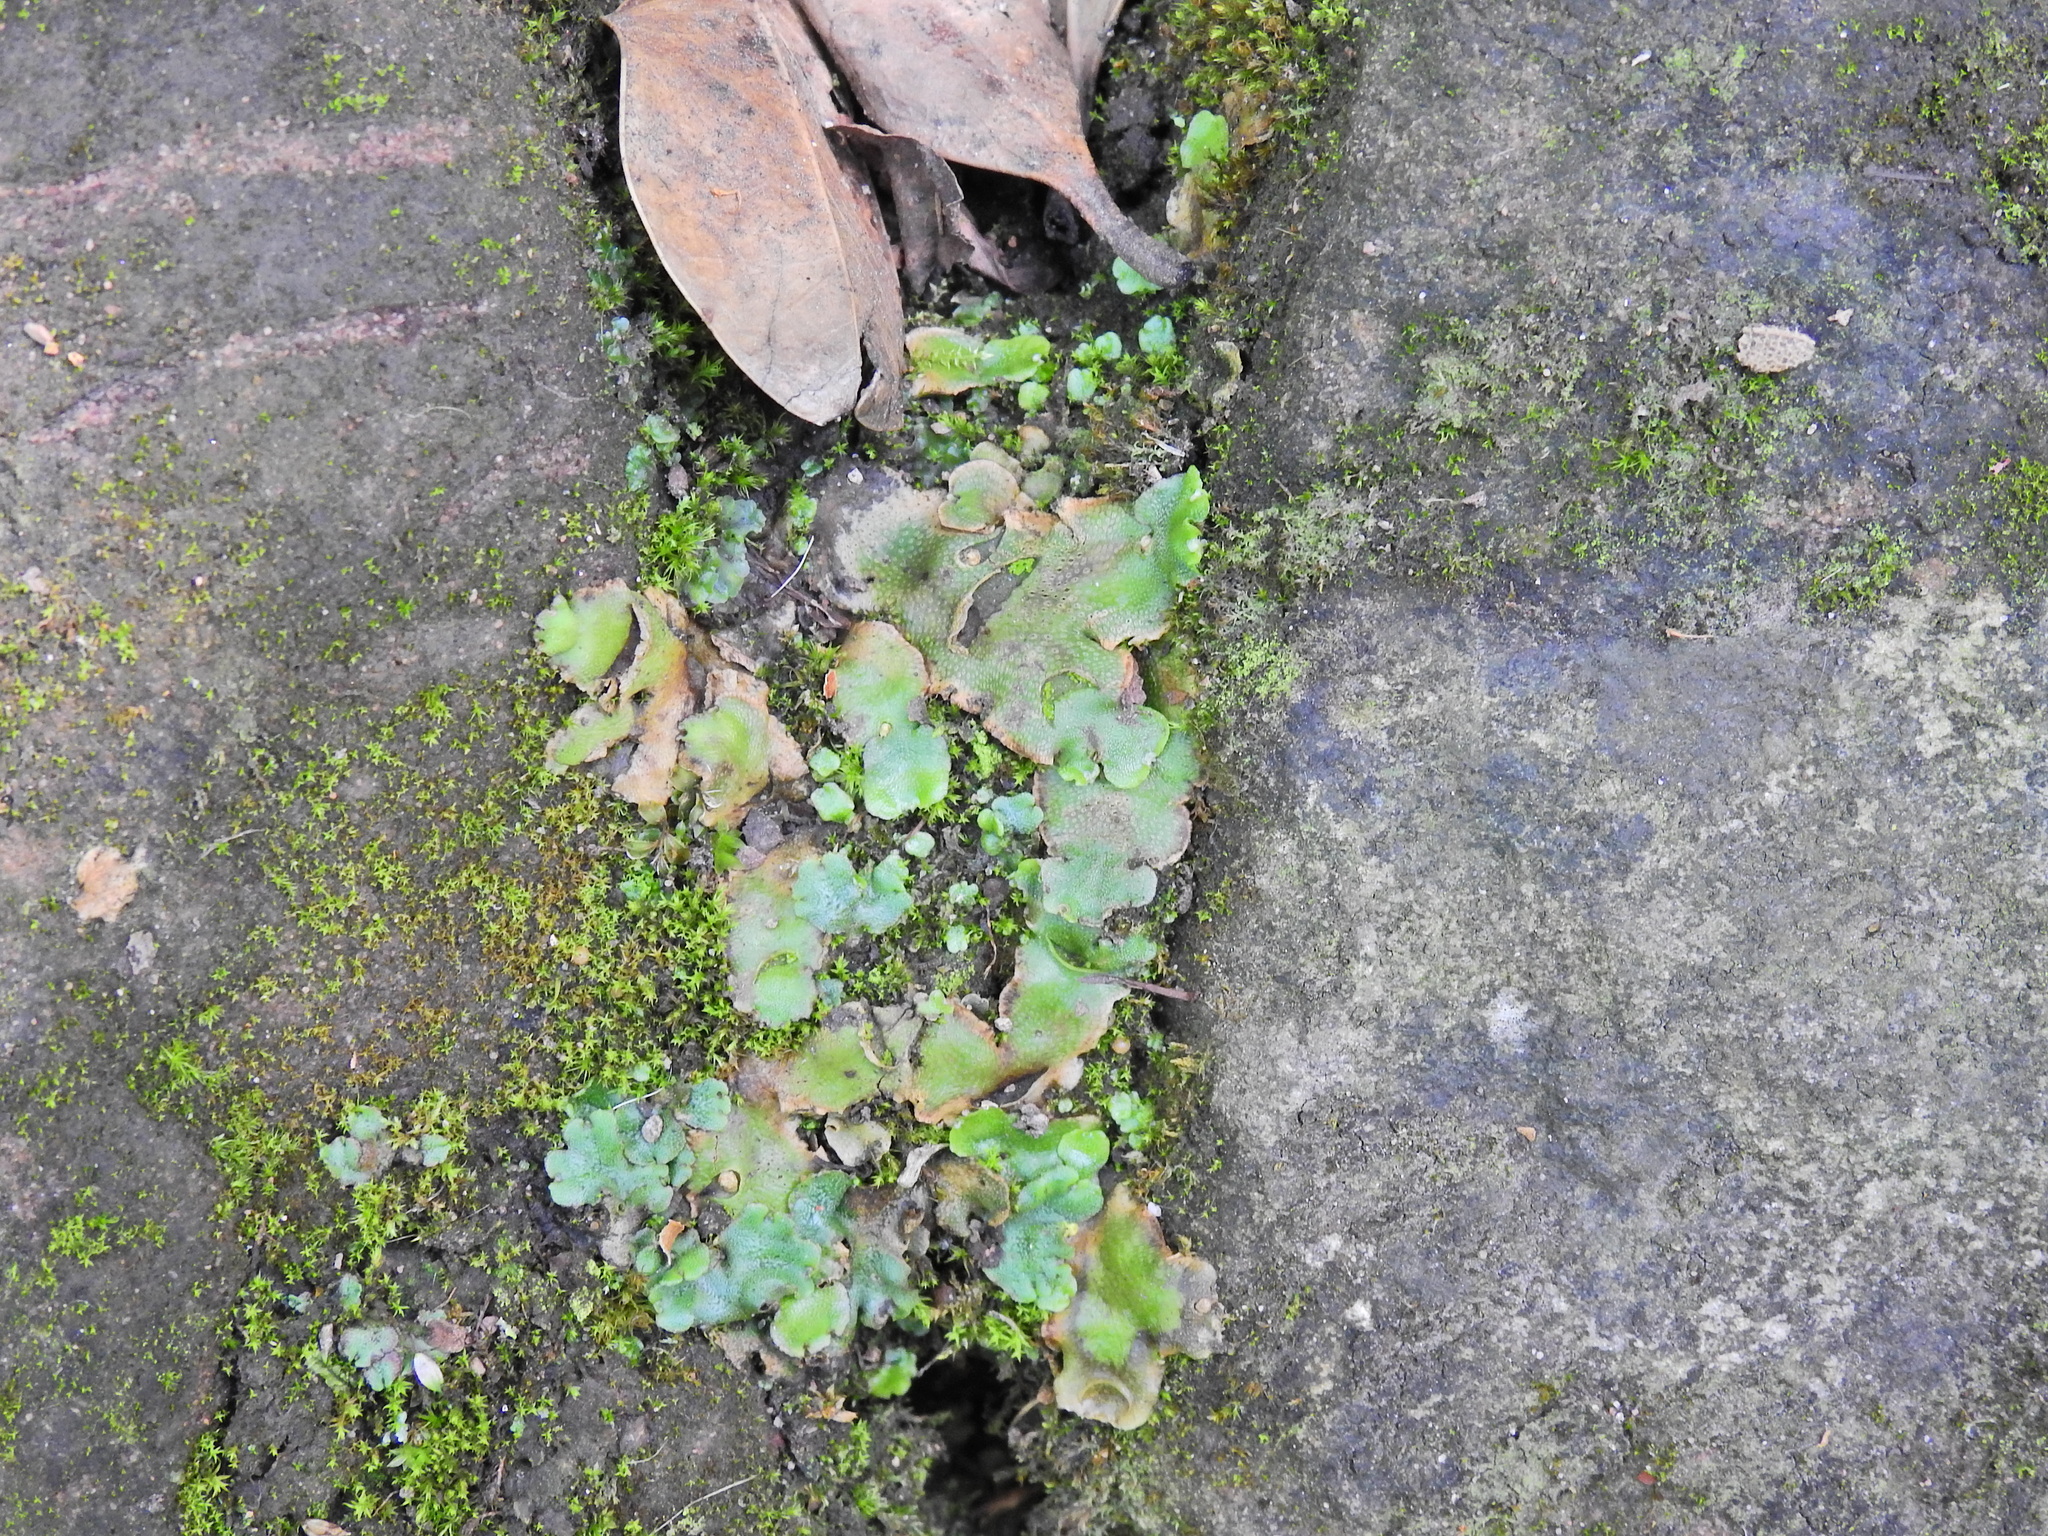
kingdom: Plantae
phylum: Marchantiophyta
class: Marchantiopsida
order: Lunulariales
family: Lunulariaceae
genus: Lunularia
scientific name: Lunularia cruciata
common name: Crescent-cup liverwort
